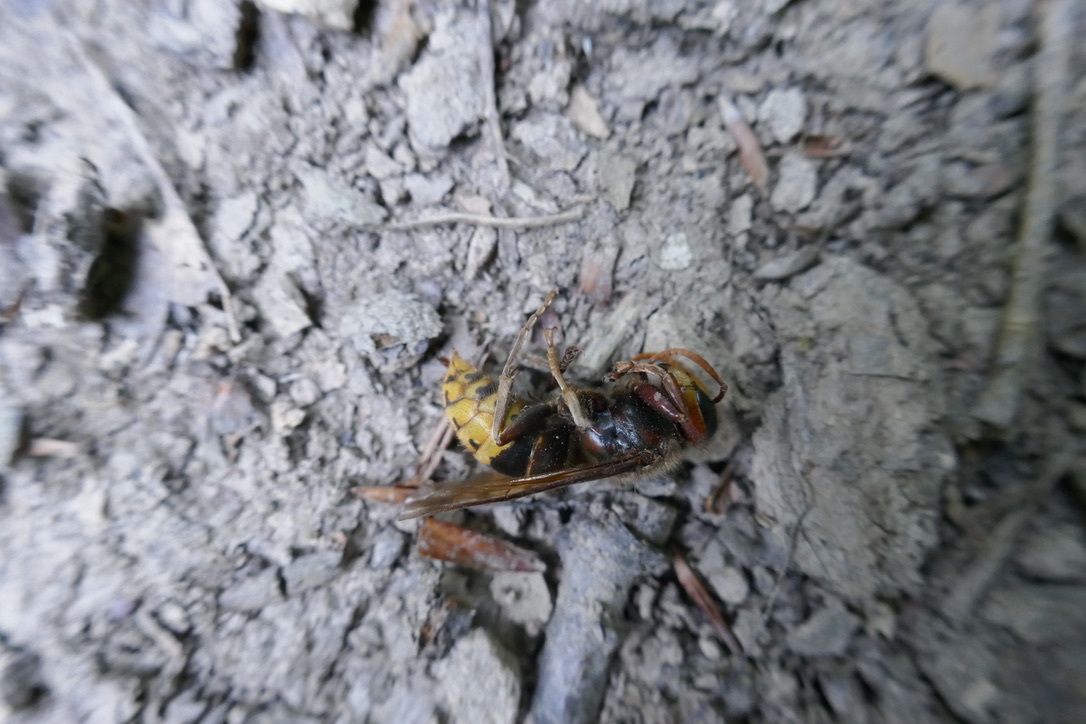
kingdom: Animalia
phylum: Arthropoda
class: Insecta
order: Hymenoptera
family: Vespidae
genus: Vespa
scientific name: Vespa crabro
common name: Hornet
